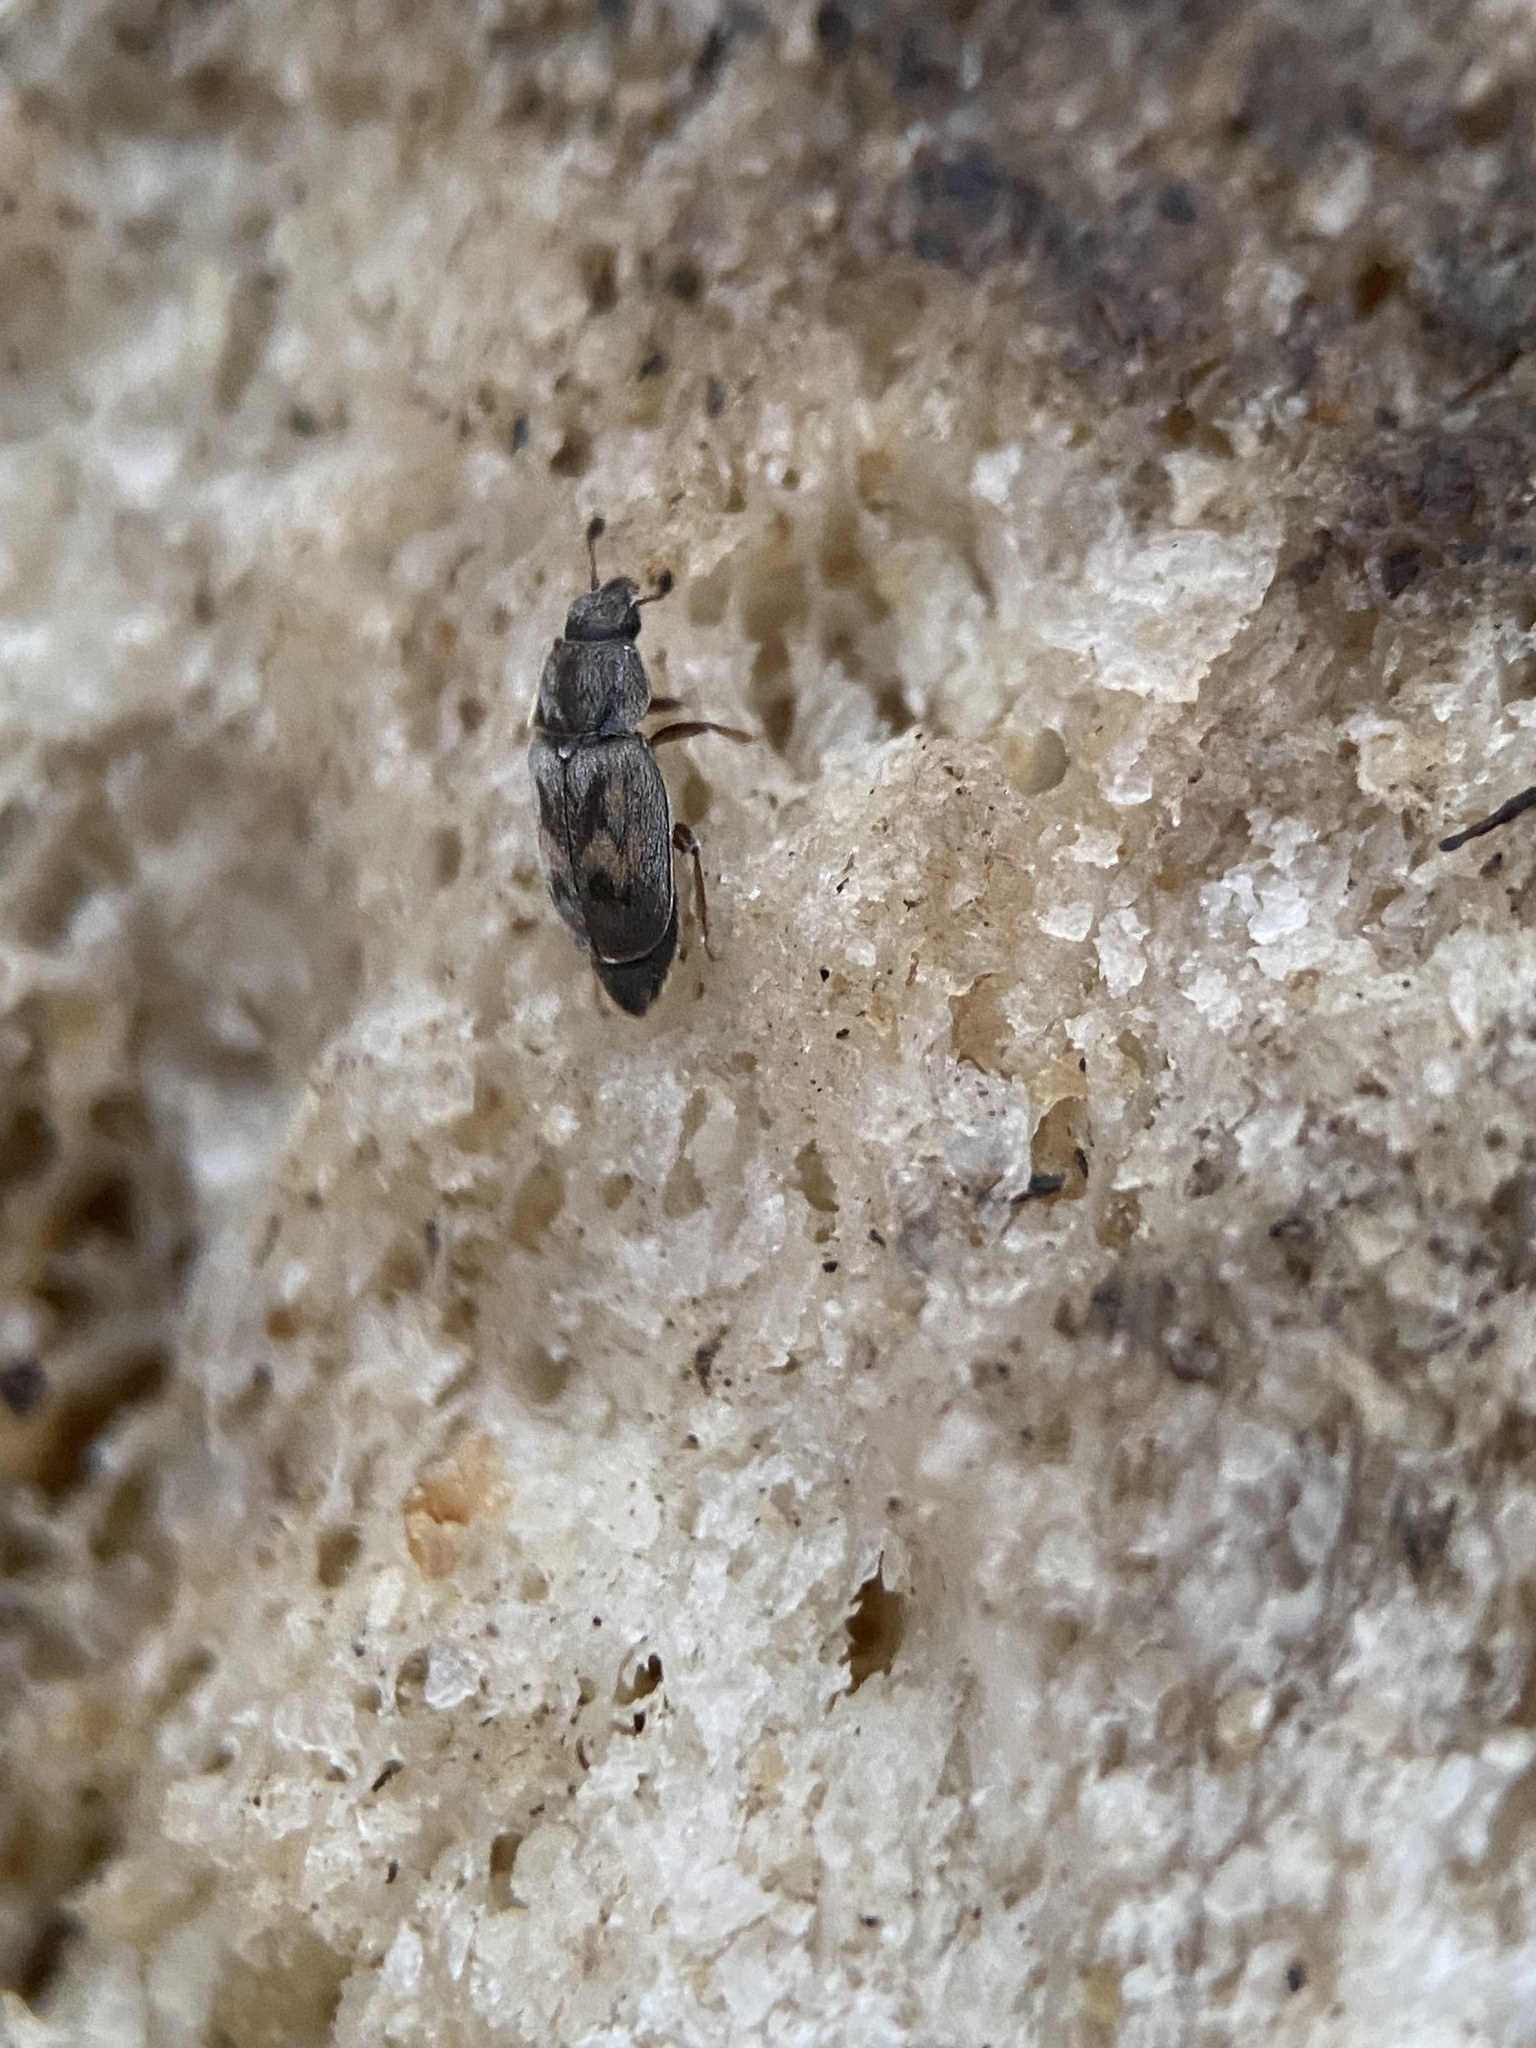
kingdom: Animalia
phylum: Arthropoda
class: Insecta
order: Coleoptera
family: Nitidulidae
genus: Nitidula
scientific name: Nitidula ziczac
